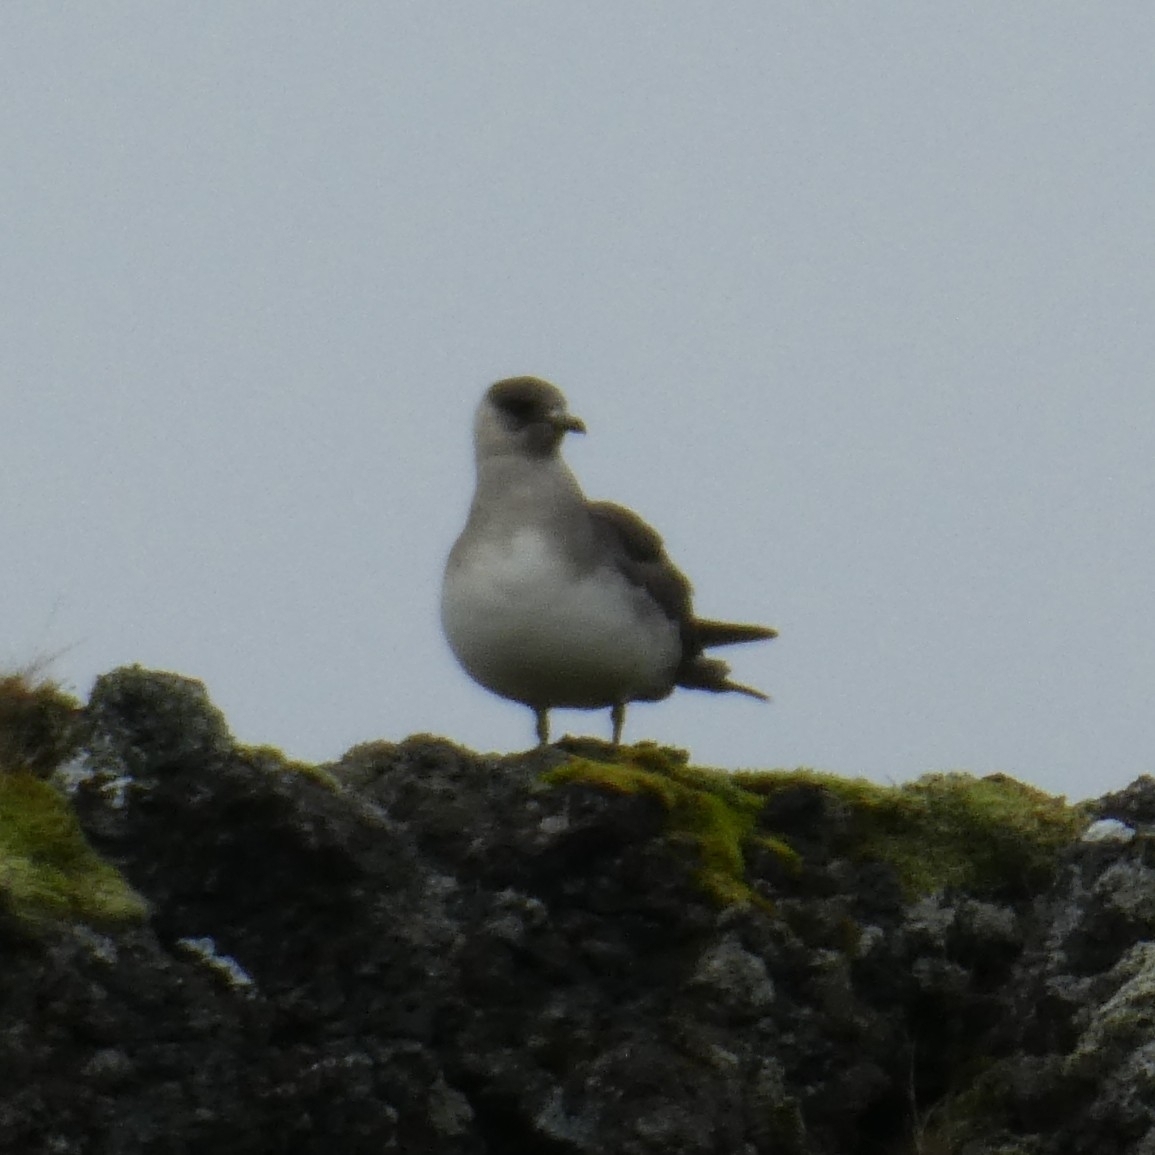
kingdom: Animalia
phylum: Chordata
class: Aves
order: Charadriiformes
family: Stercorariidae
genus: Stercorarius
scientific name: Stercorarius parasiticus
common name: Parasitic jaeger
